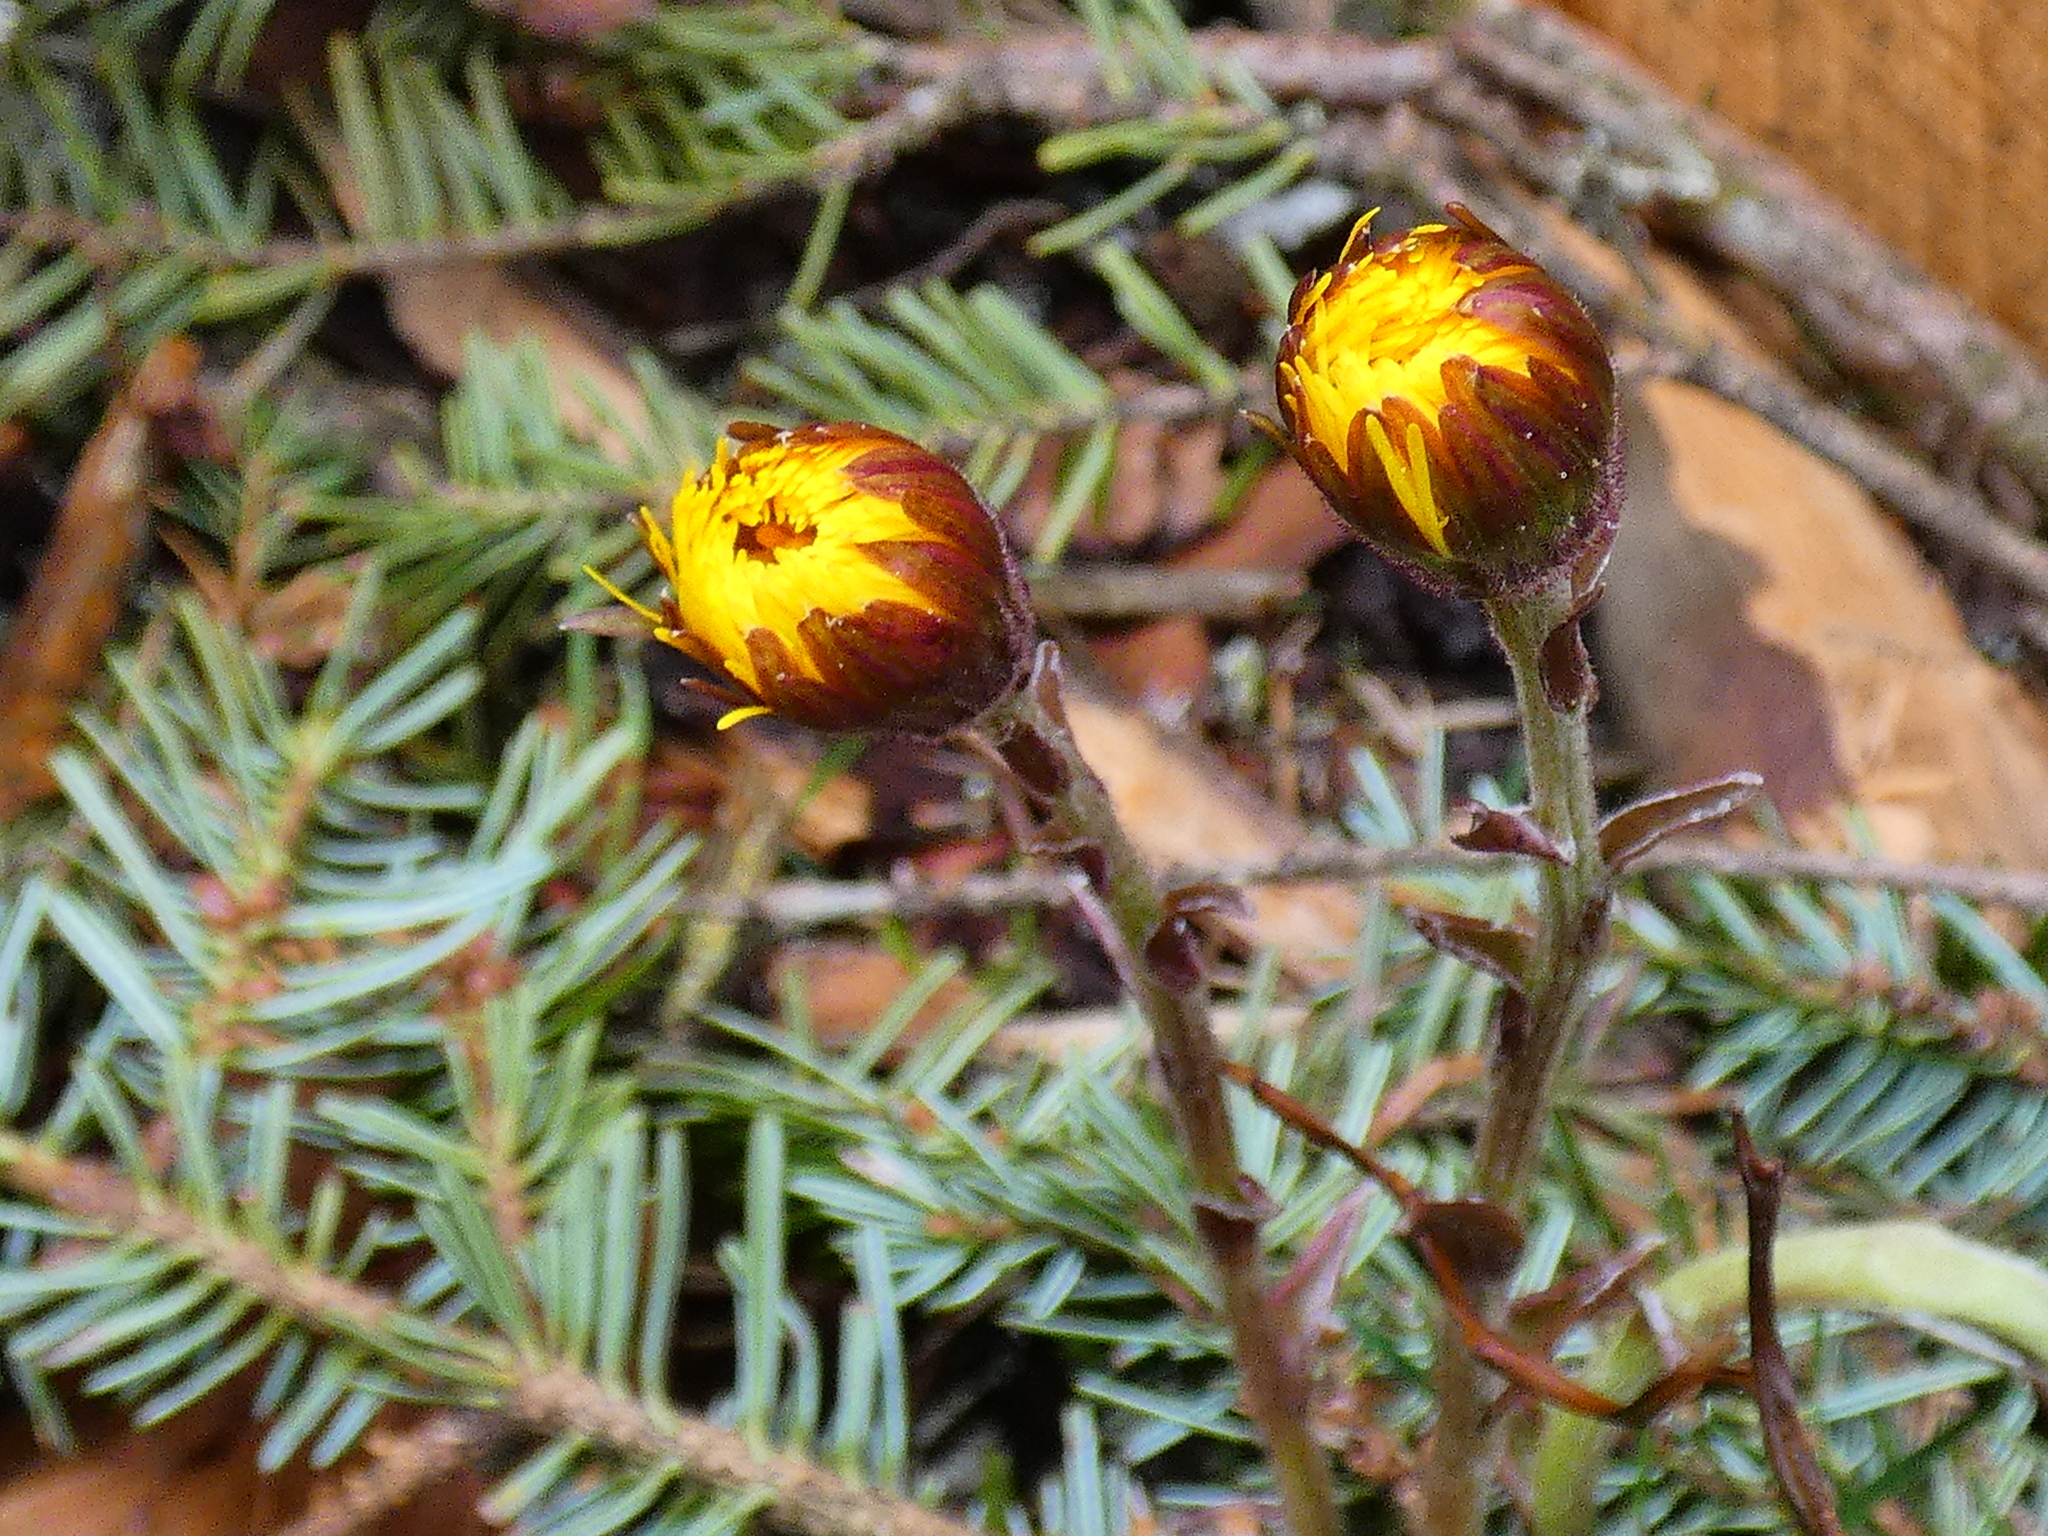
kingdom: Plantae
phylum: Tracheophyta
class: Magnoliopsida
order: Asterales
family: Asteraceae
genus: Tussilago
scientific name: Tussilago farfara
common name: Coltsfoot
